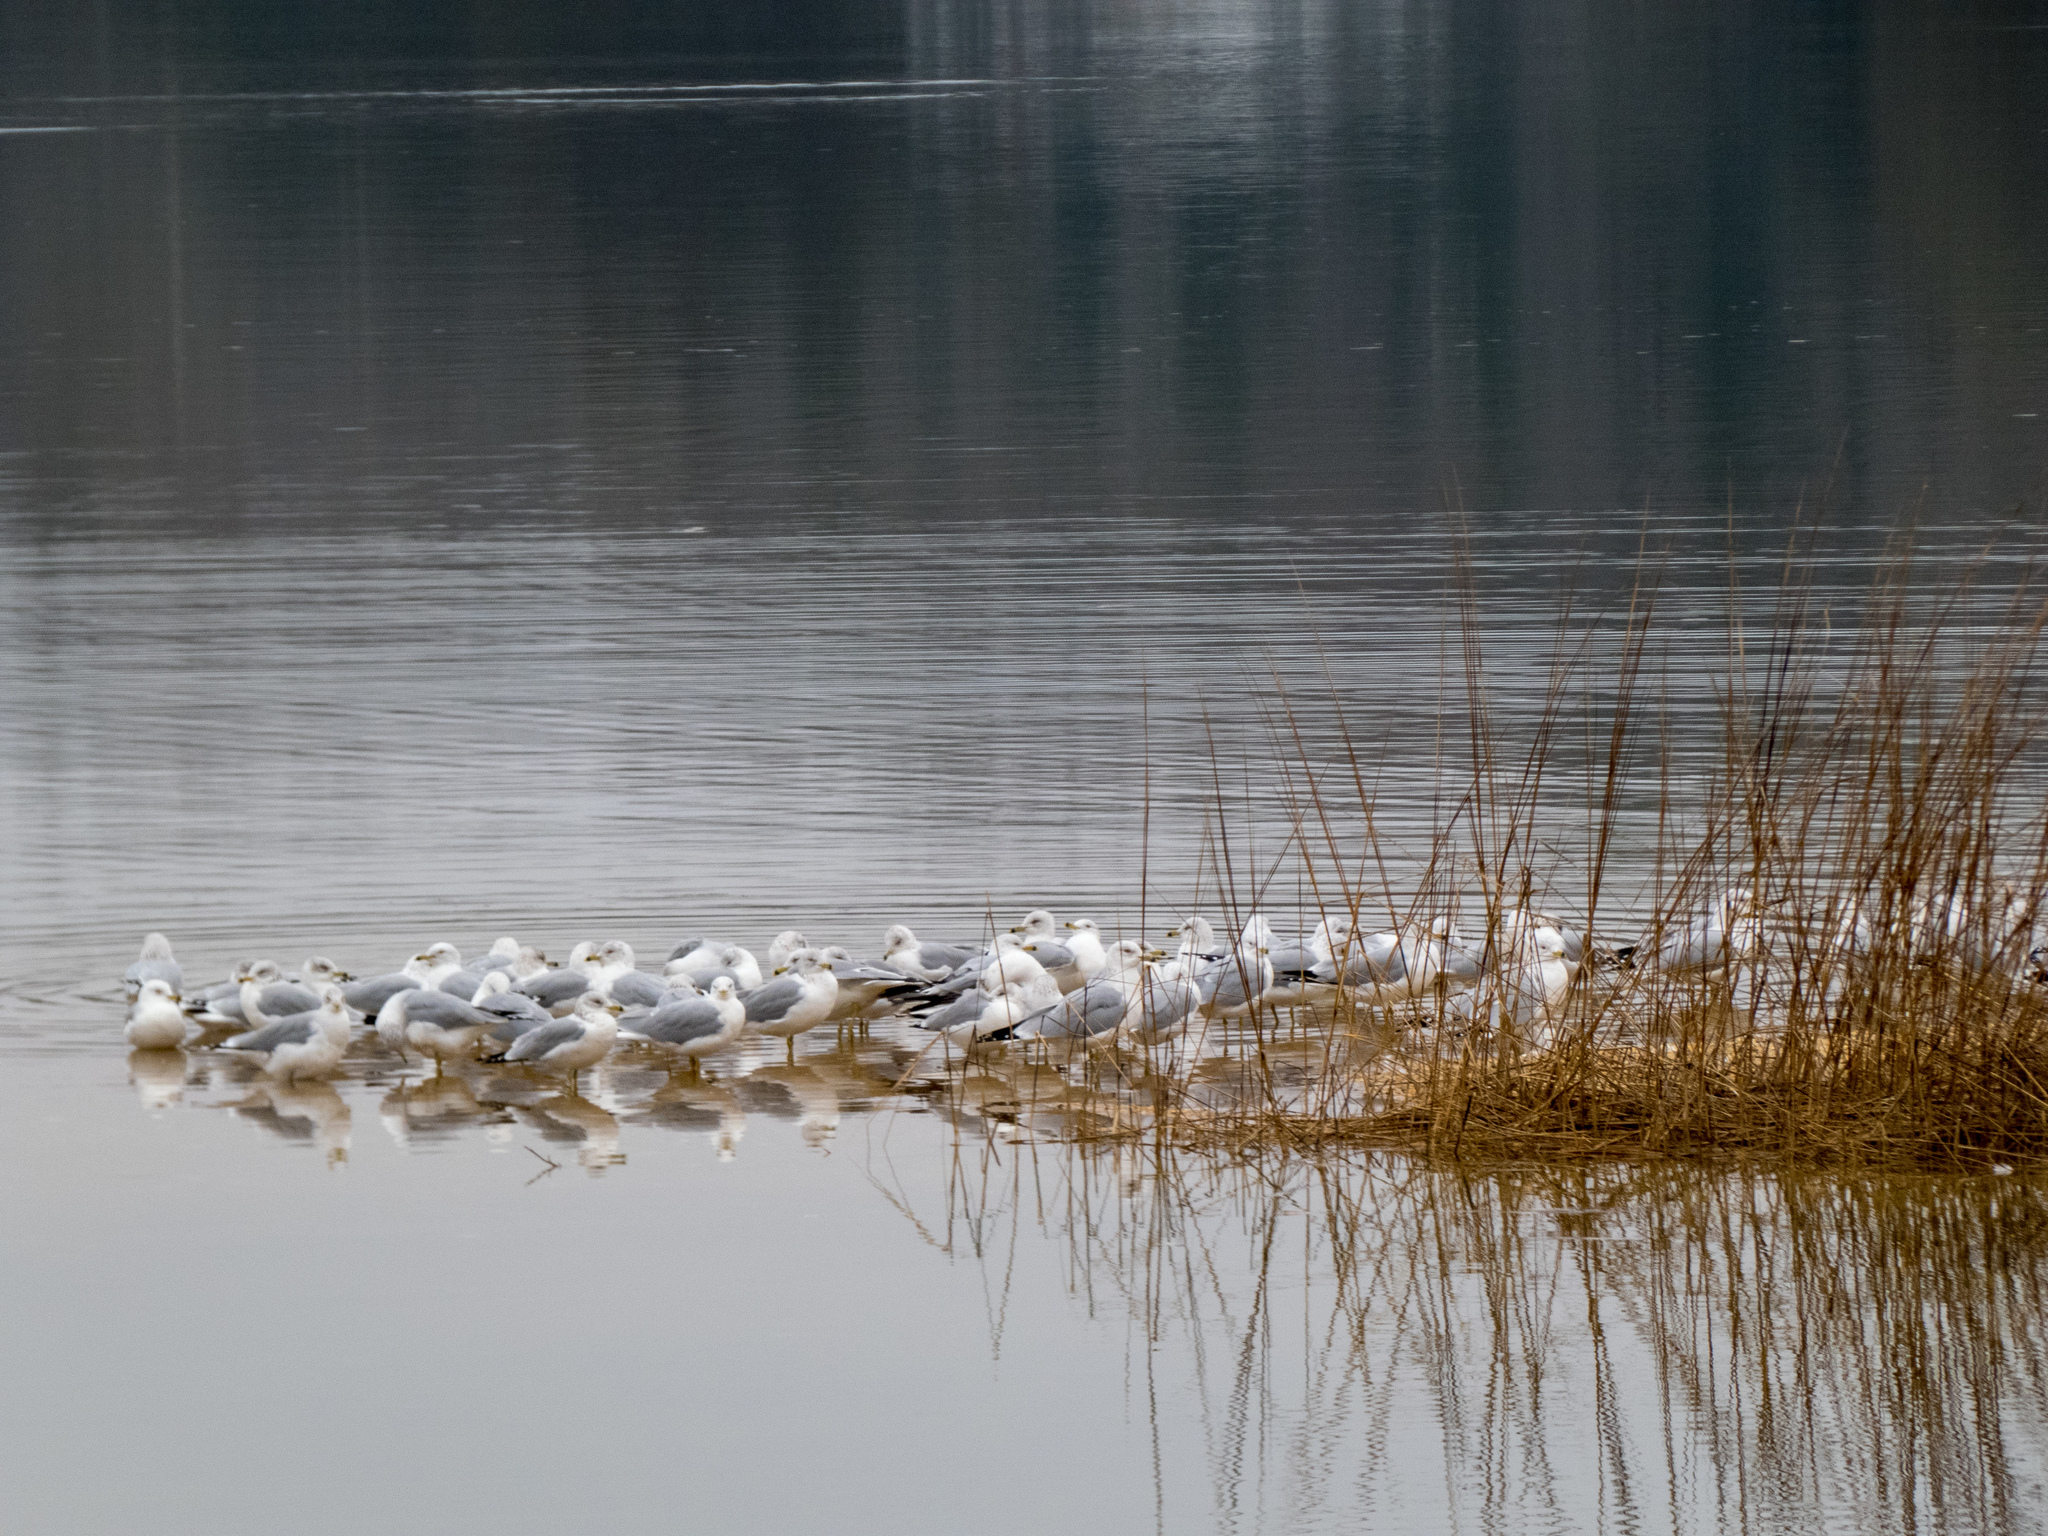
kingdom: Animalia
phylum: Chordata
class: Aves
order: Charadriiformes
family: Laridae
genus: Larus
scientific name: Larus delawarensis
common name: Ring-billed gull
